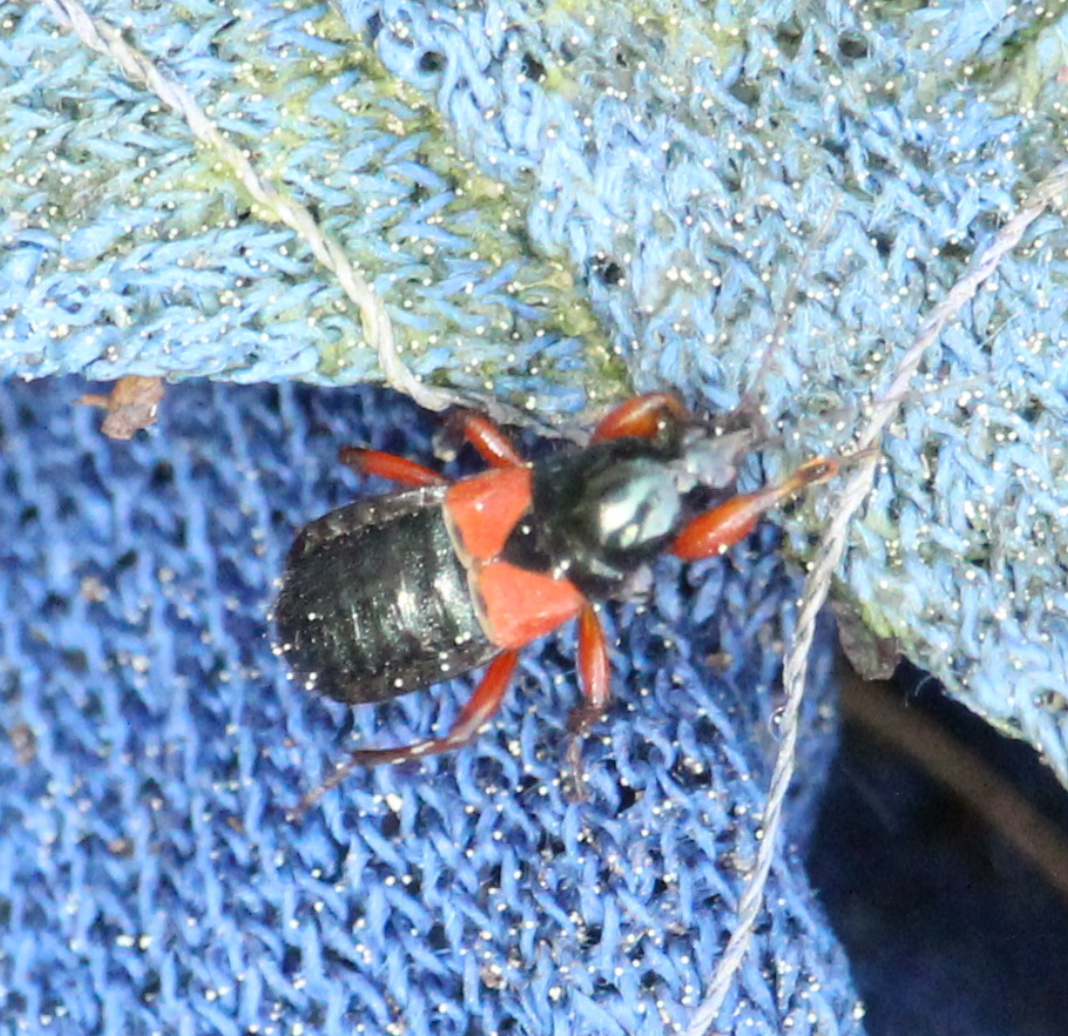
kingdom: Animalia
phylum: Arthropoda
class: Insecta
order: Hemiptera
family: Nabidae
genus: Prostemma
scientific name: Prostemma guttula
